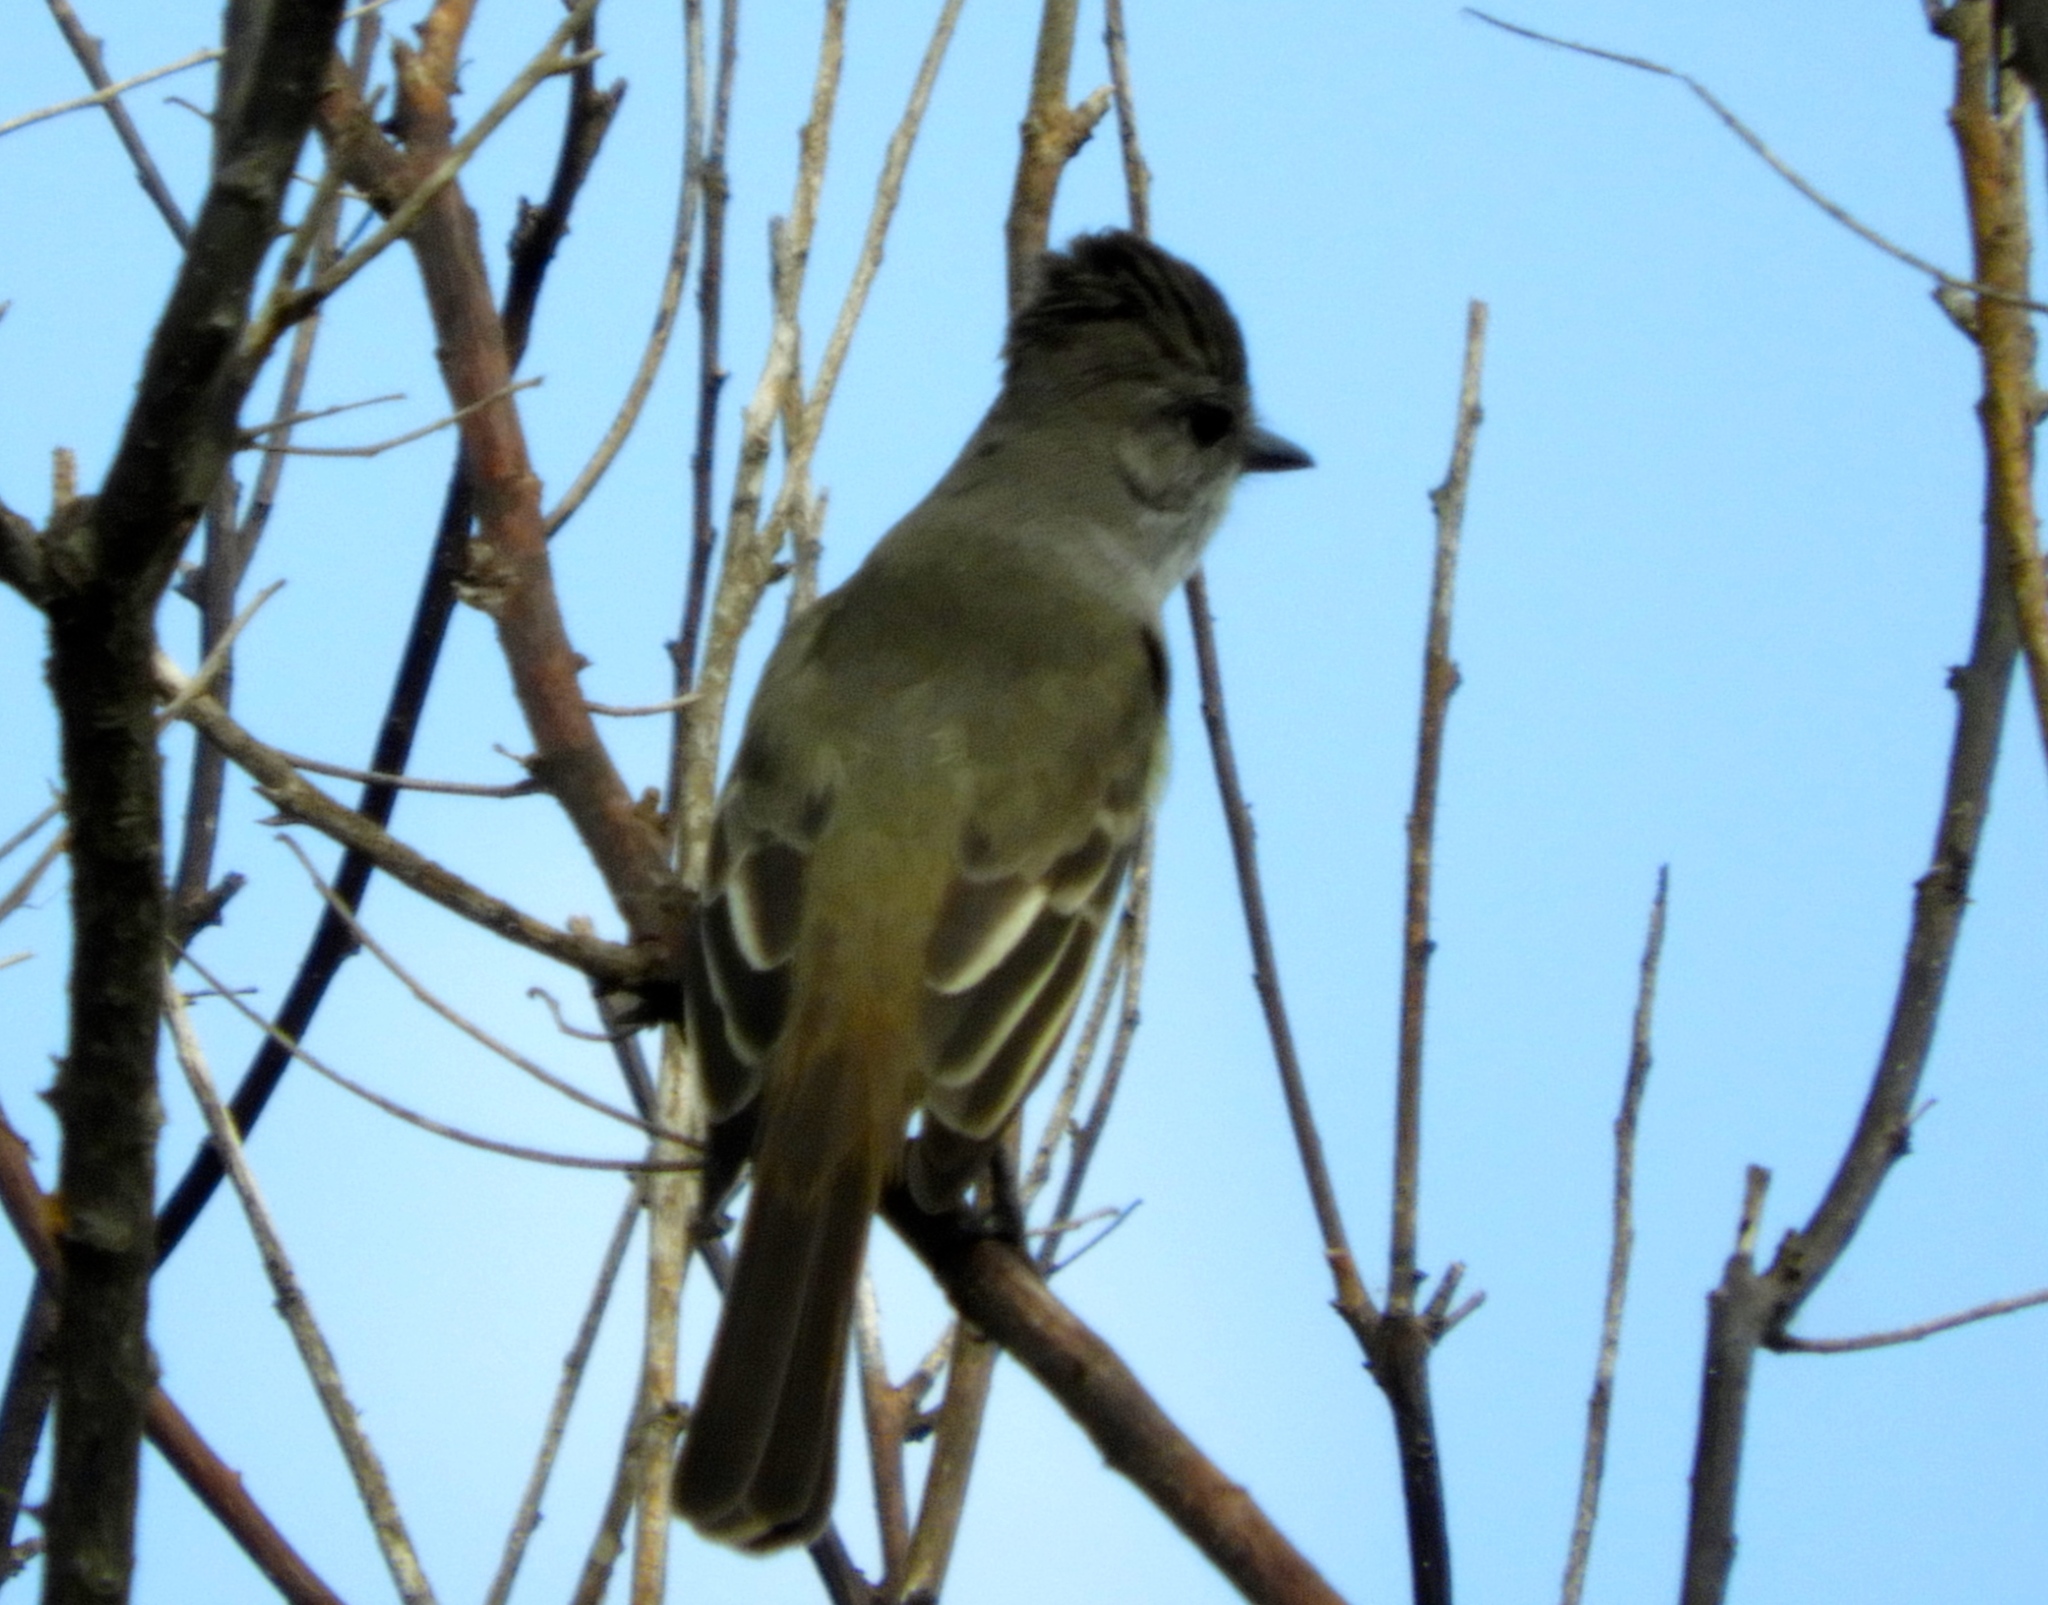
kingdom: Animalia
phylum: Chordata
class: Aves
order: Passeriformes
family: Tyrannidae
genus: Myiarchus
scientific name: Myiarchus
